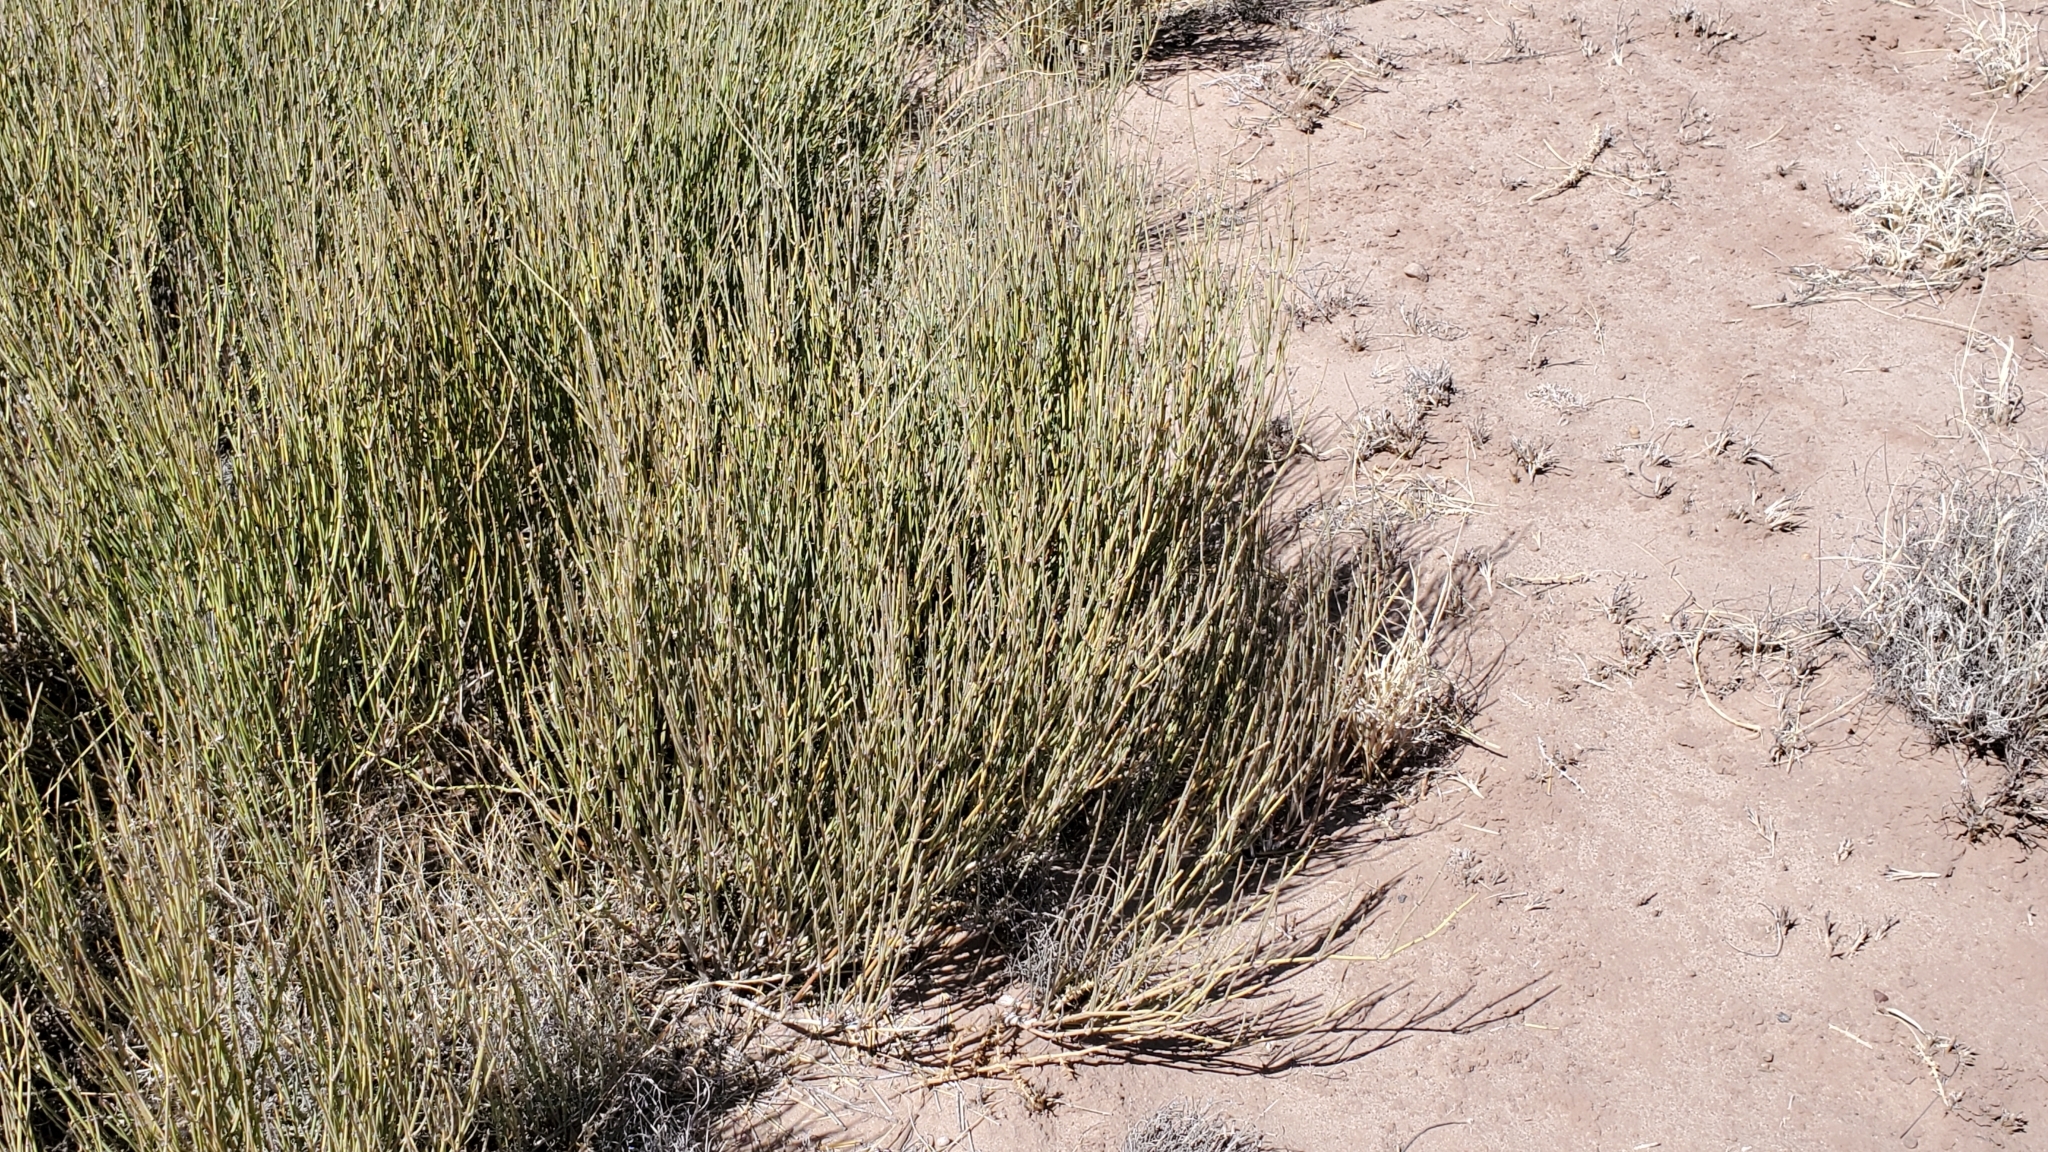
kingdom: Plantae
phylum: Tracheophyta
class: Gnetopsida
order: Ephedrales
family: Ephedraceae
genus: Ephedra
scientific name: Ephedra viridis
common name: Green ephedra
